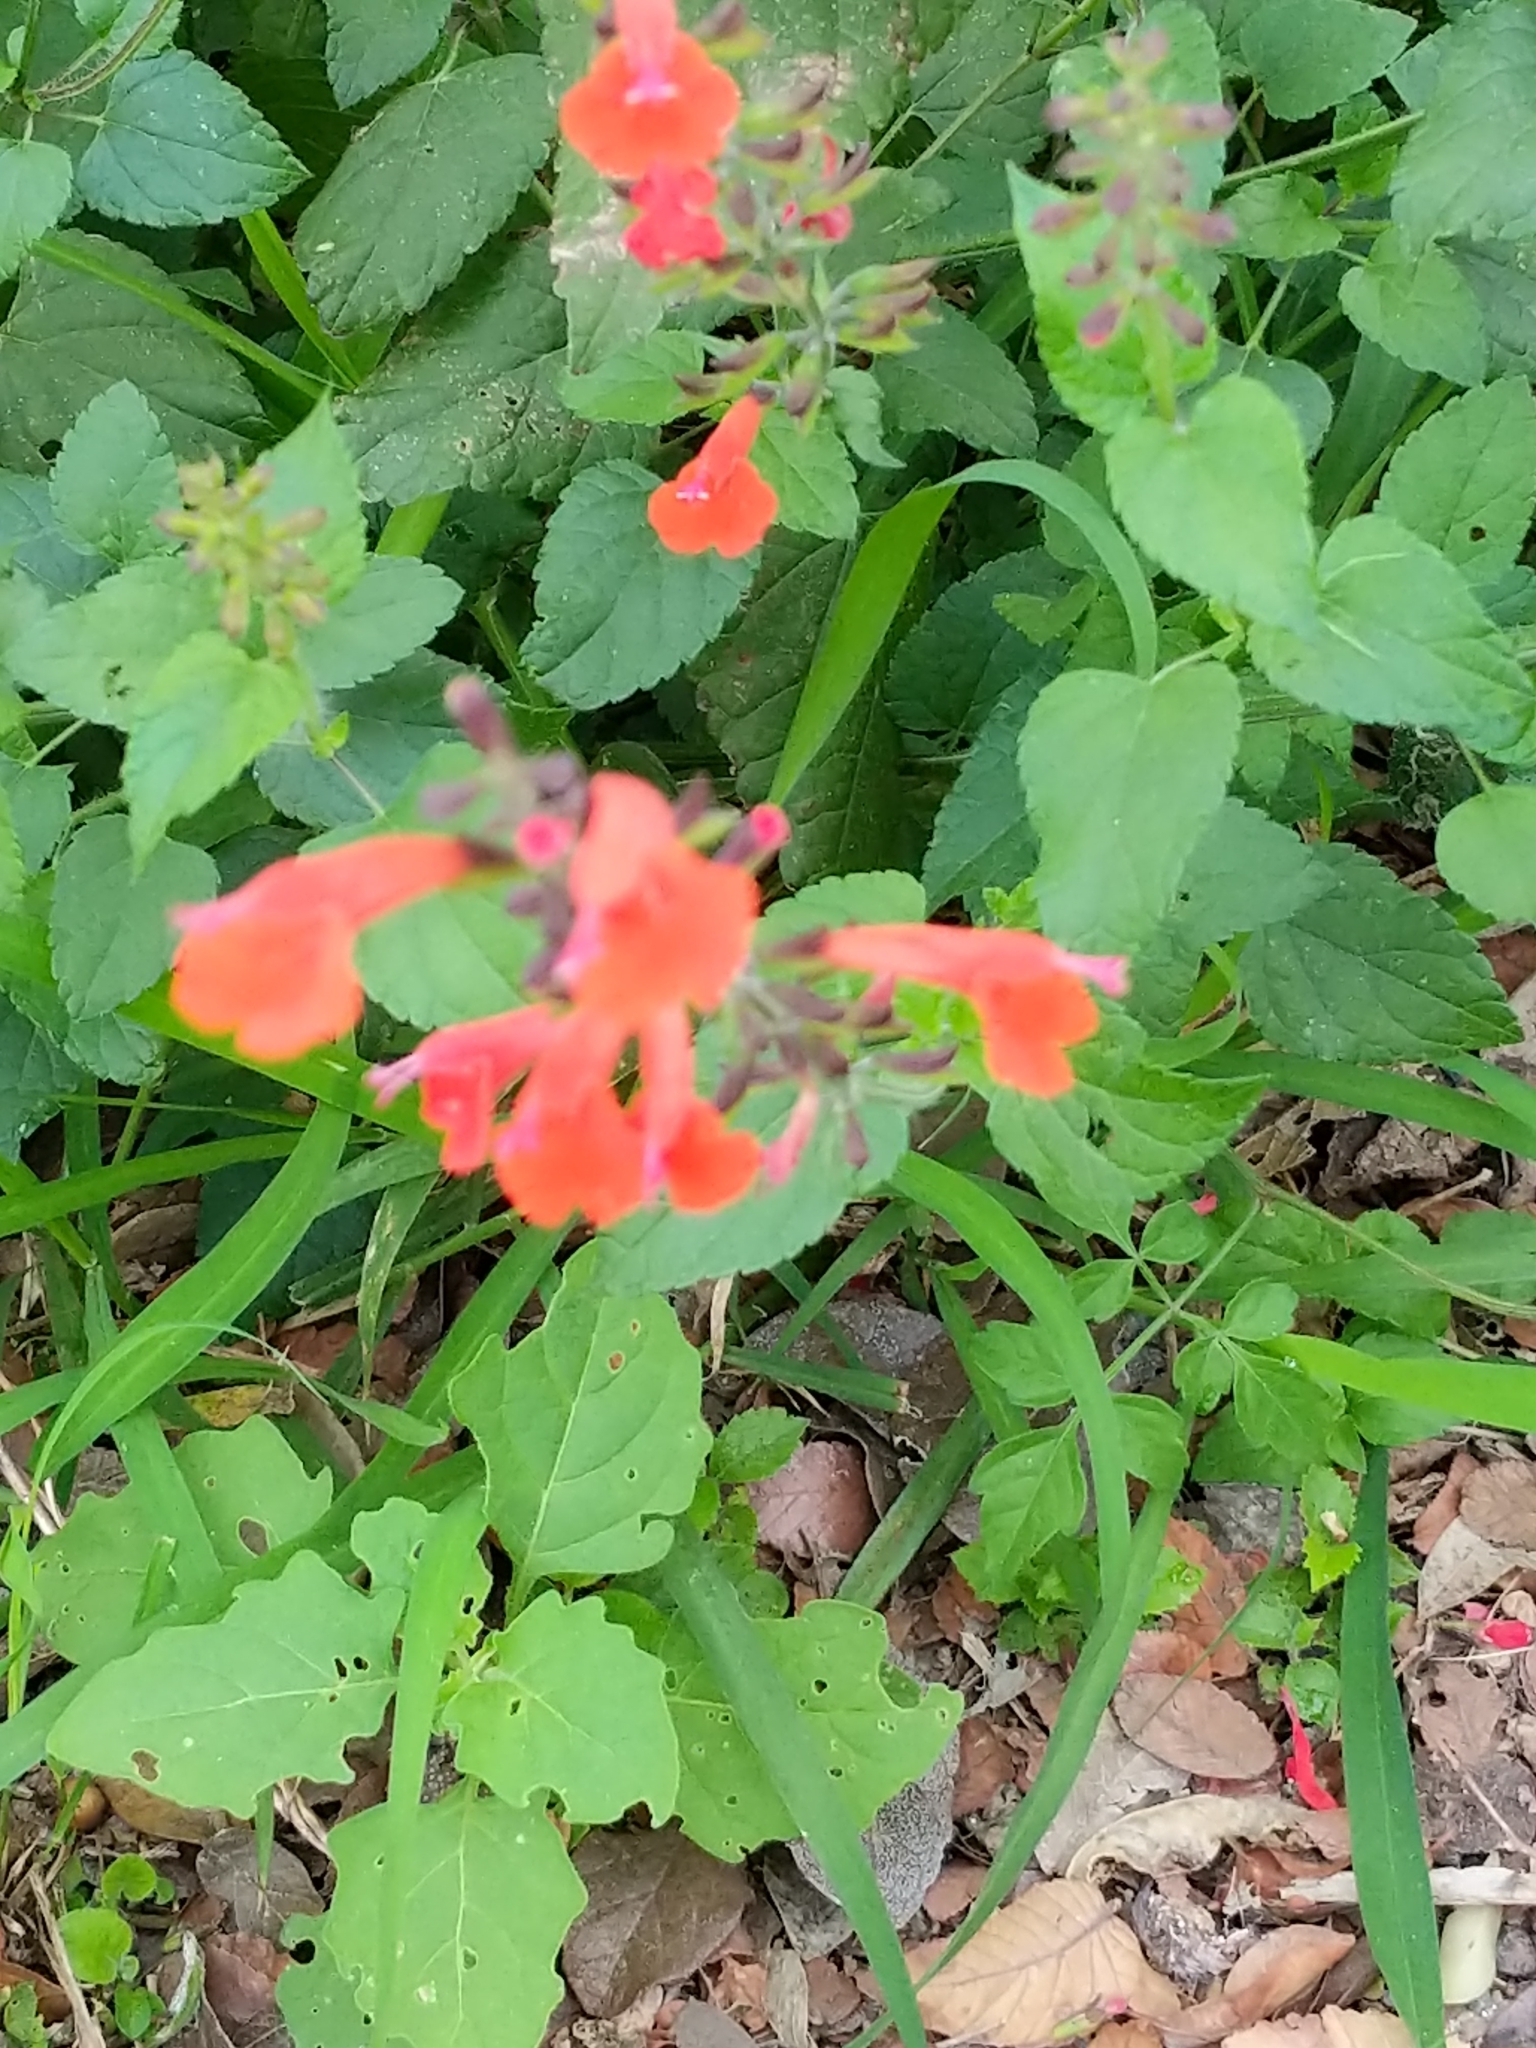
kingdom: Plantae
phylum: Tracheophyta
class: Magnoliopsida
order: Lamiales
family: Lamiaceae
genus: Salvia
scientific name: Salvia coccinea
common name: Blood sage
